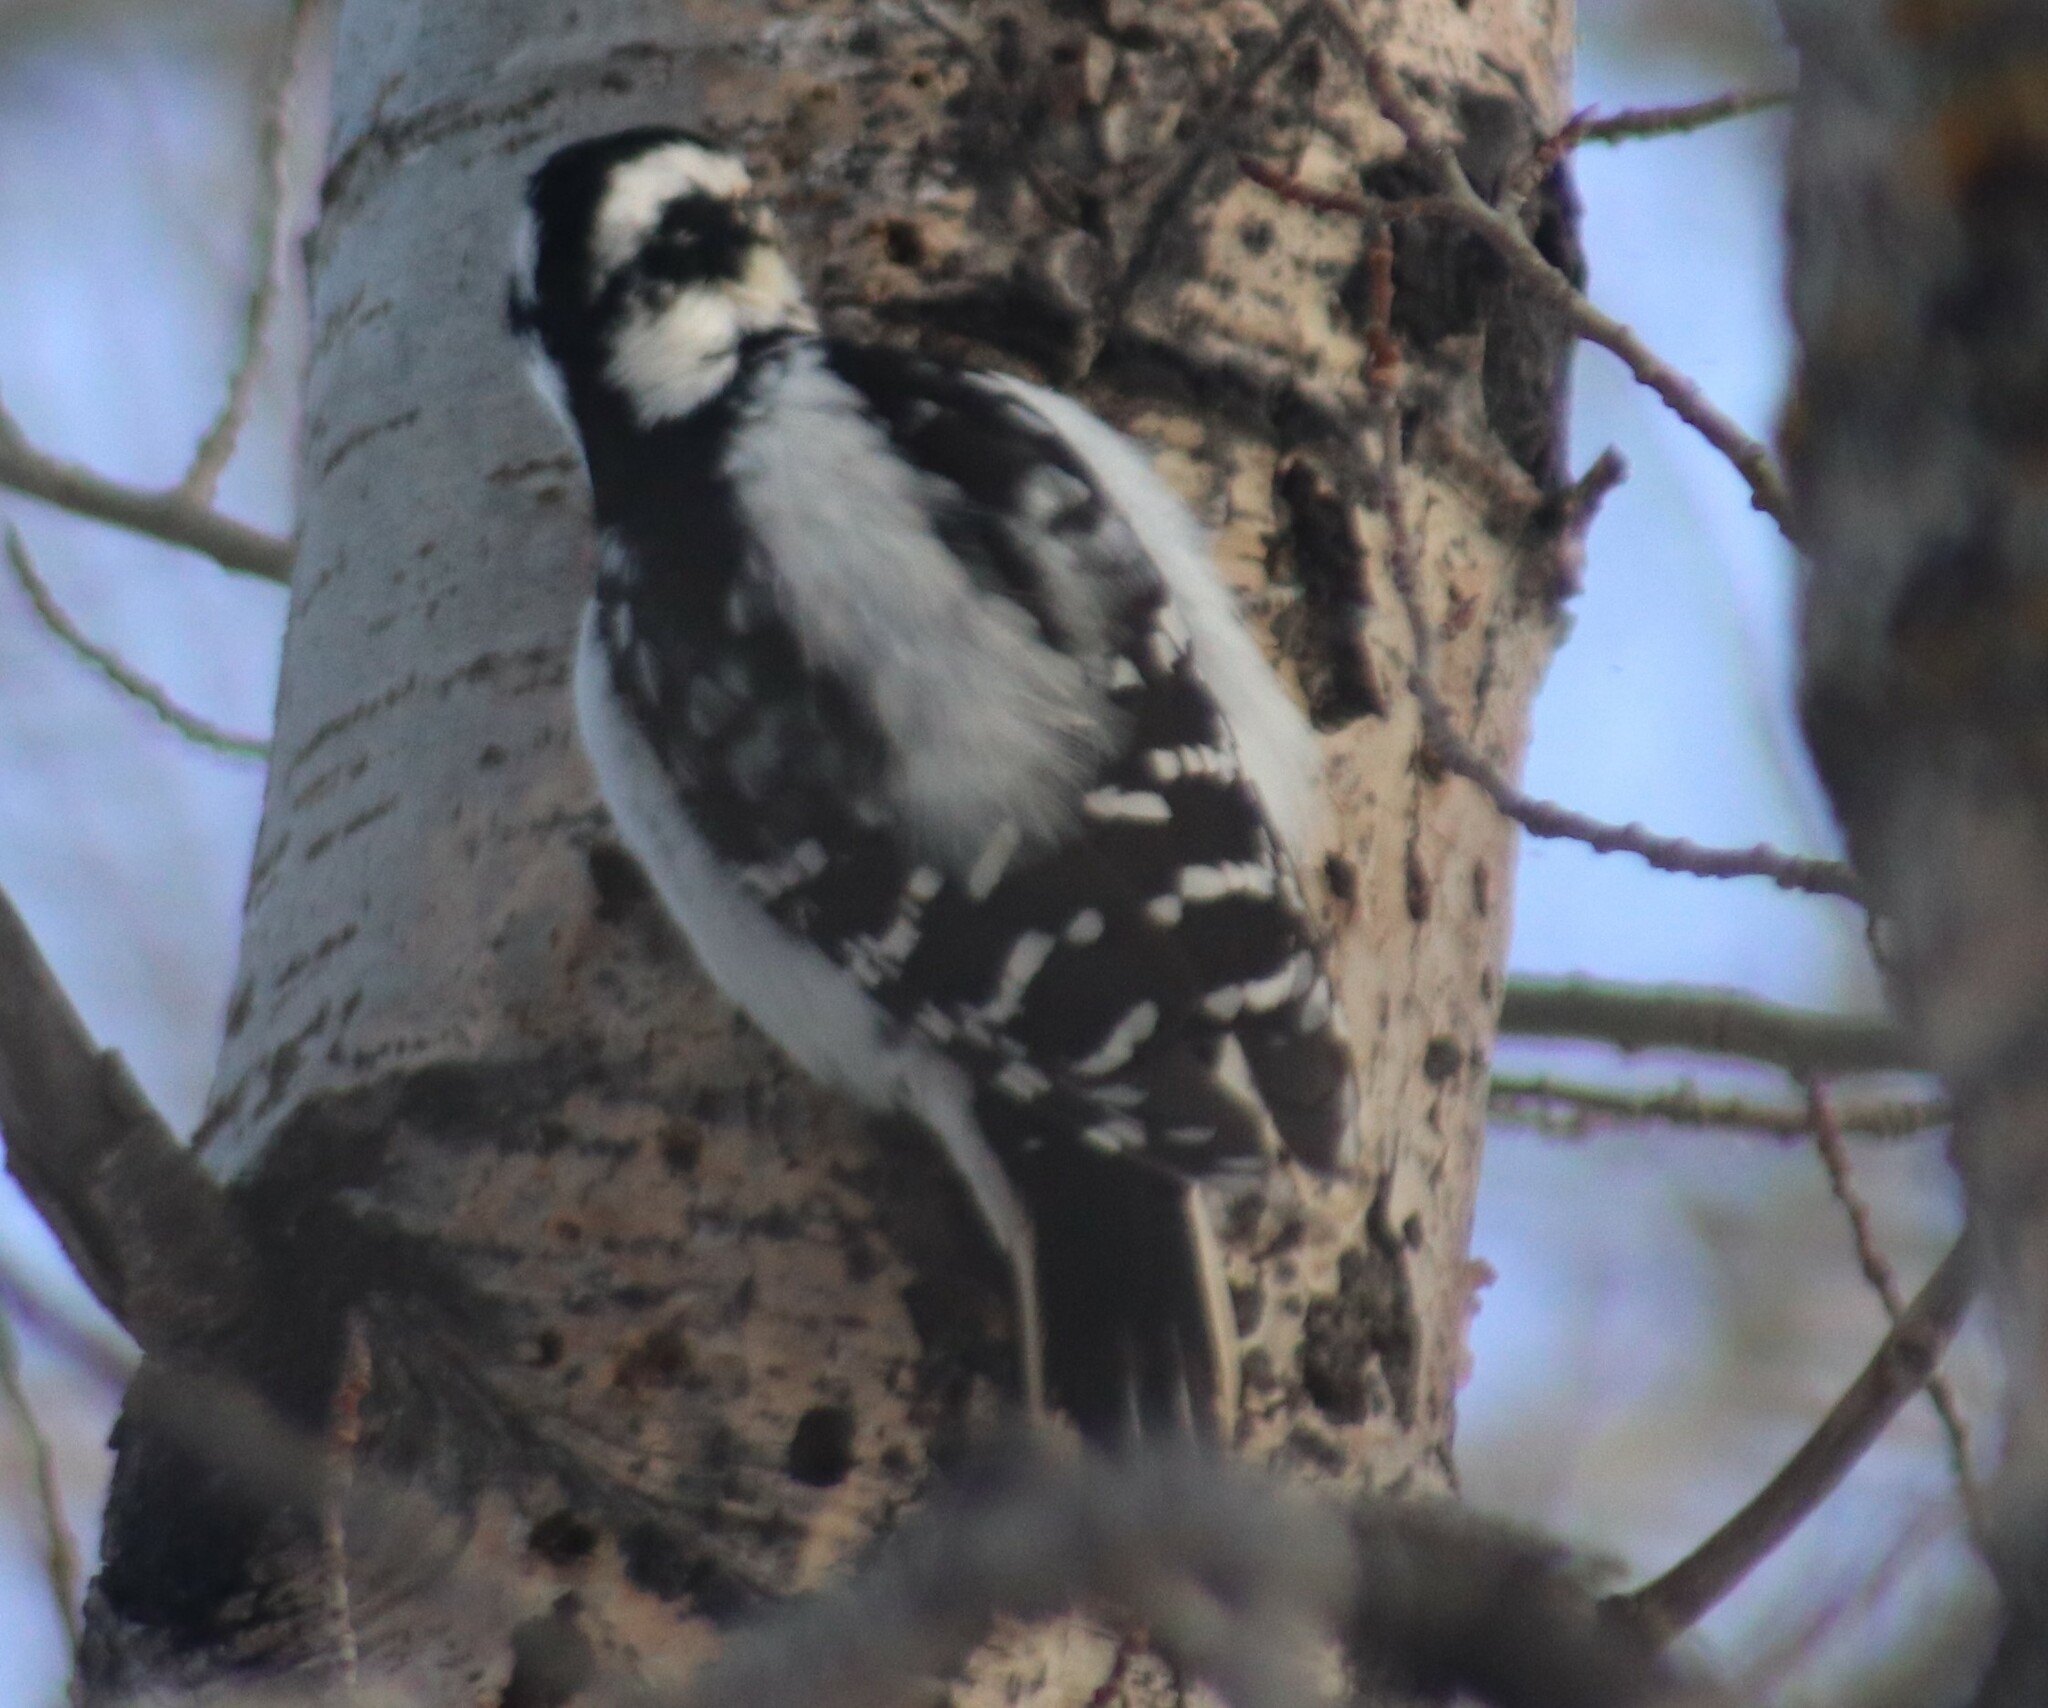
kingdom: Animalia
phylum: Chordata
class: Aves
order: Piciformes
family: Picidae
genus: Leuconotopicus
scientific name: Leuconotopicus villosus
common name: Hairy woodpecker
